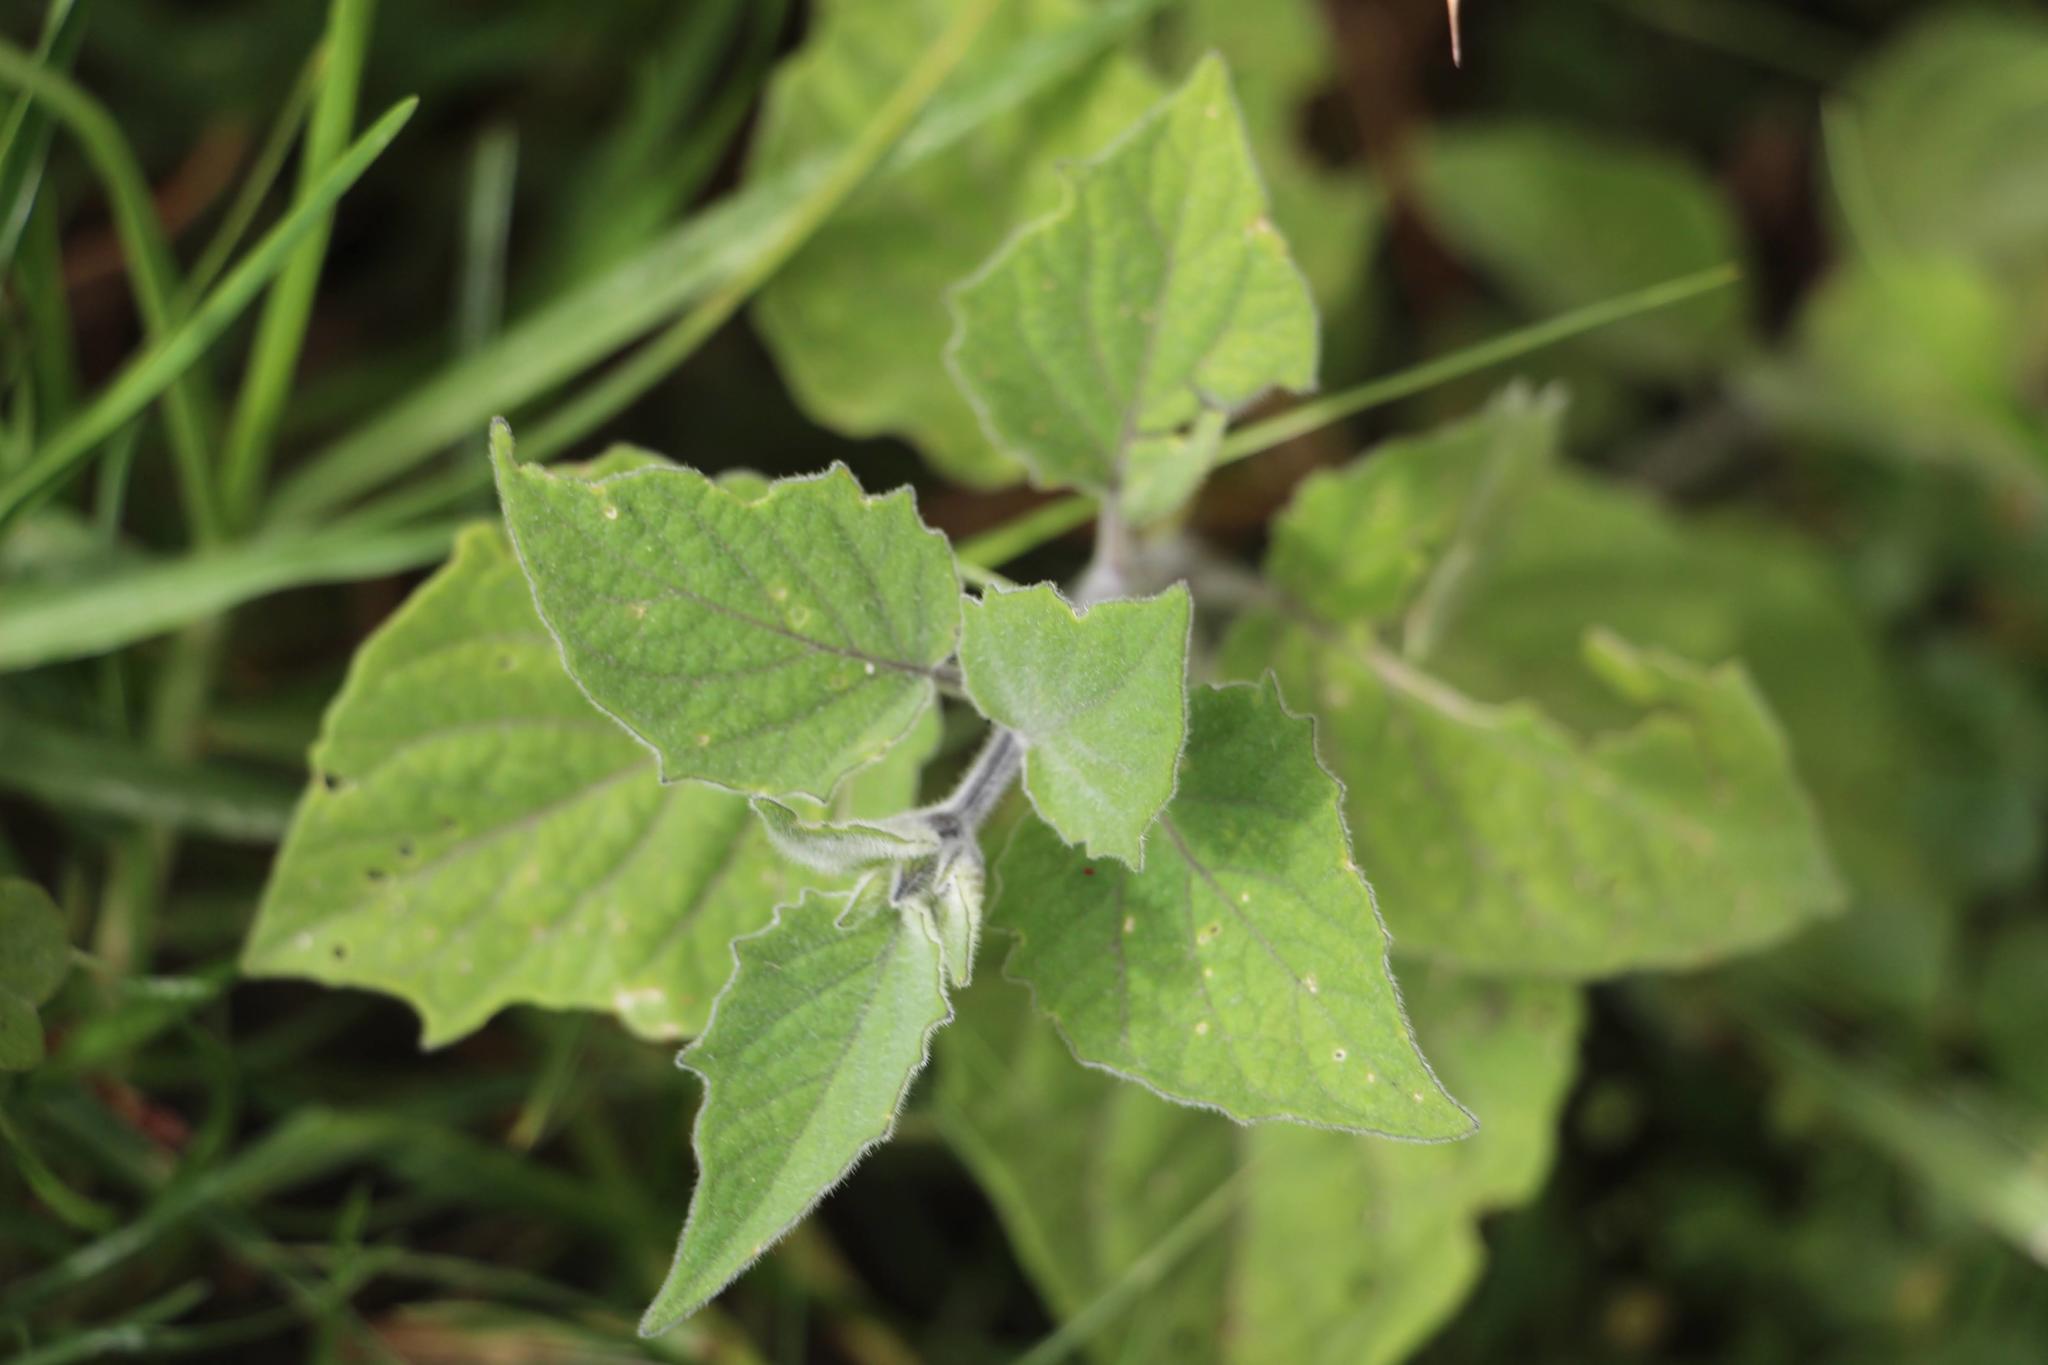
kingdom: Plantae
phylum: Tracheophyta
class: Magnoliopsida
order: Solanales
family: Solanaceae
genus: Physalis
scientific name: Physalis peruviana
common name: Cape-gooseberry
